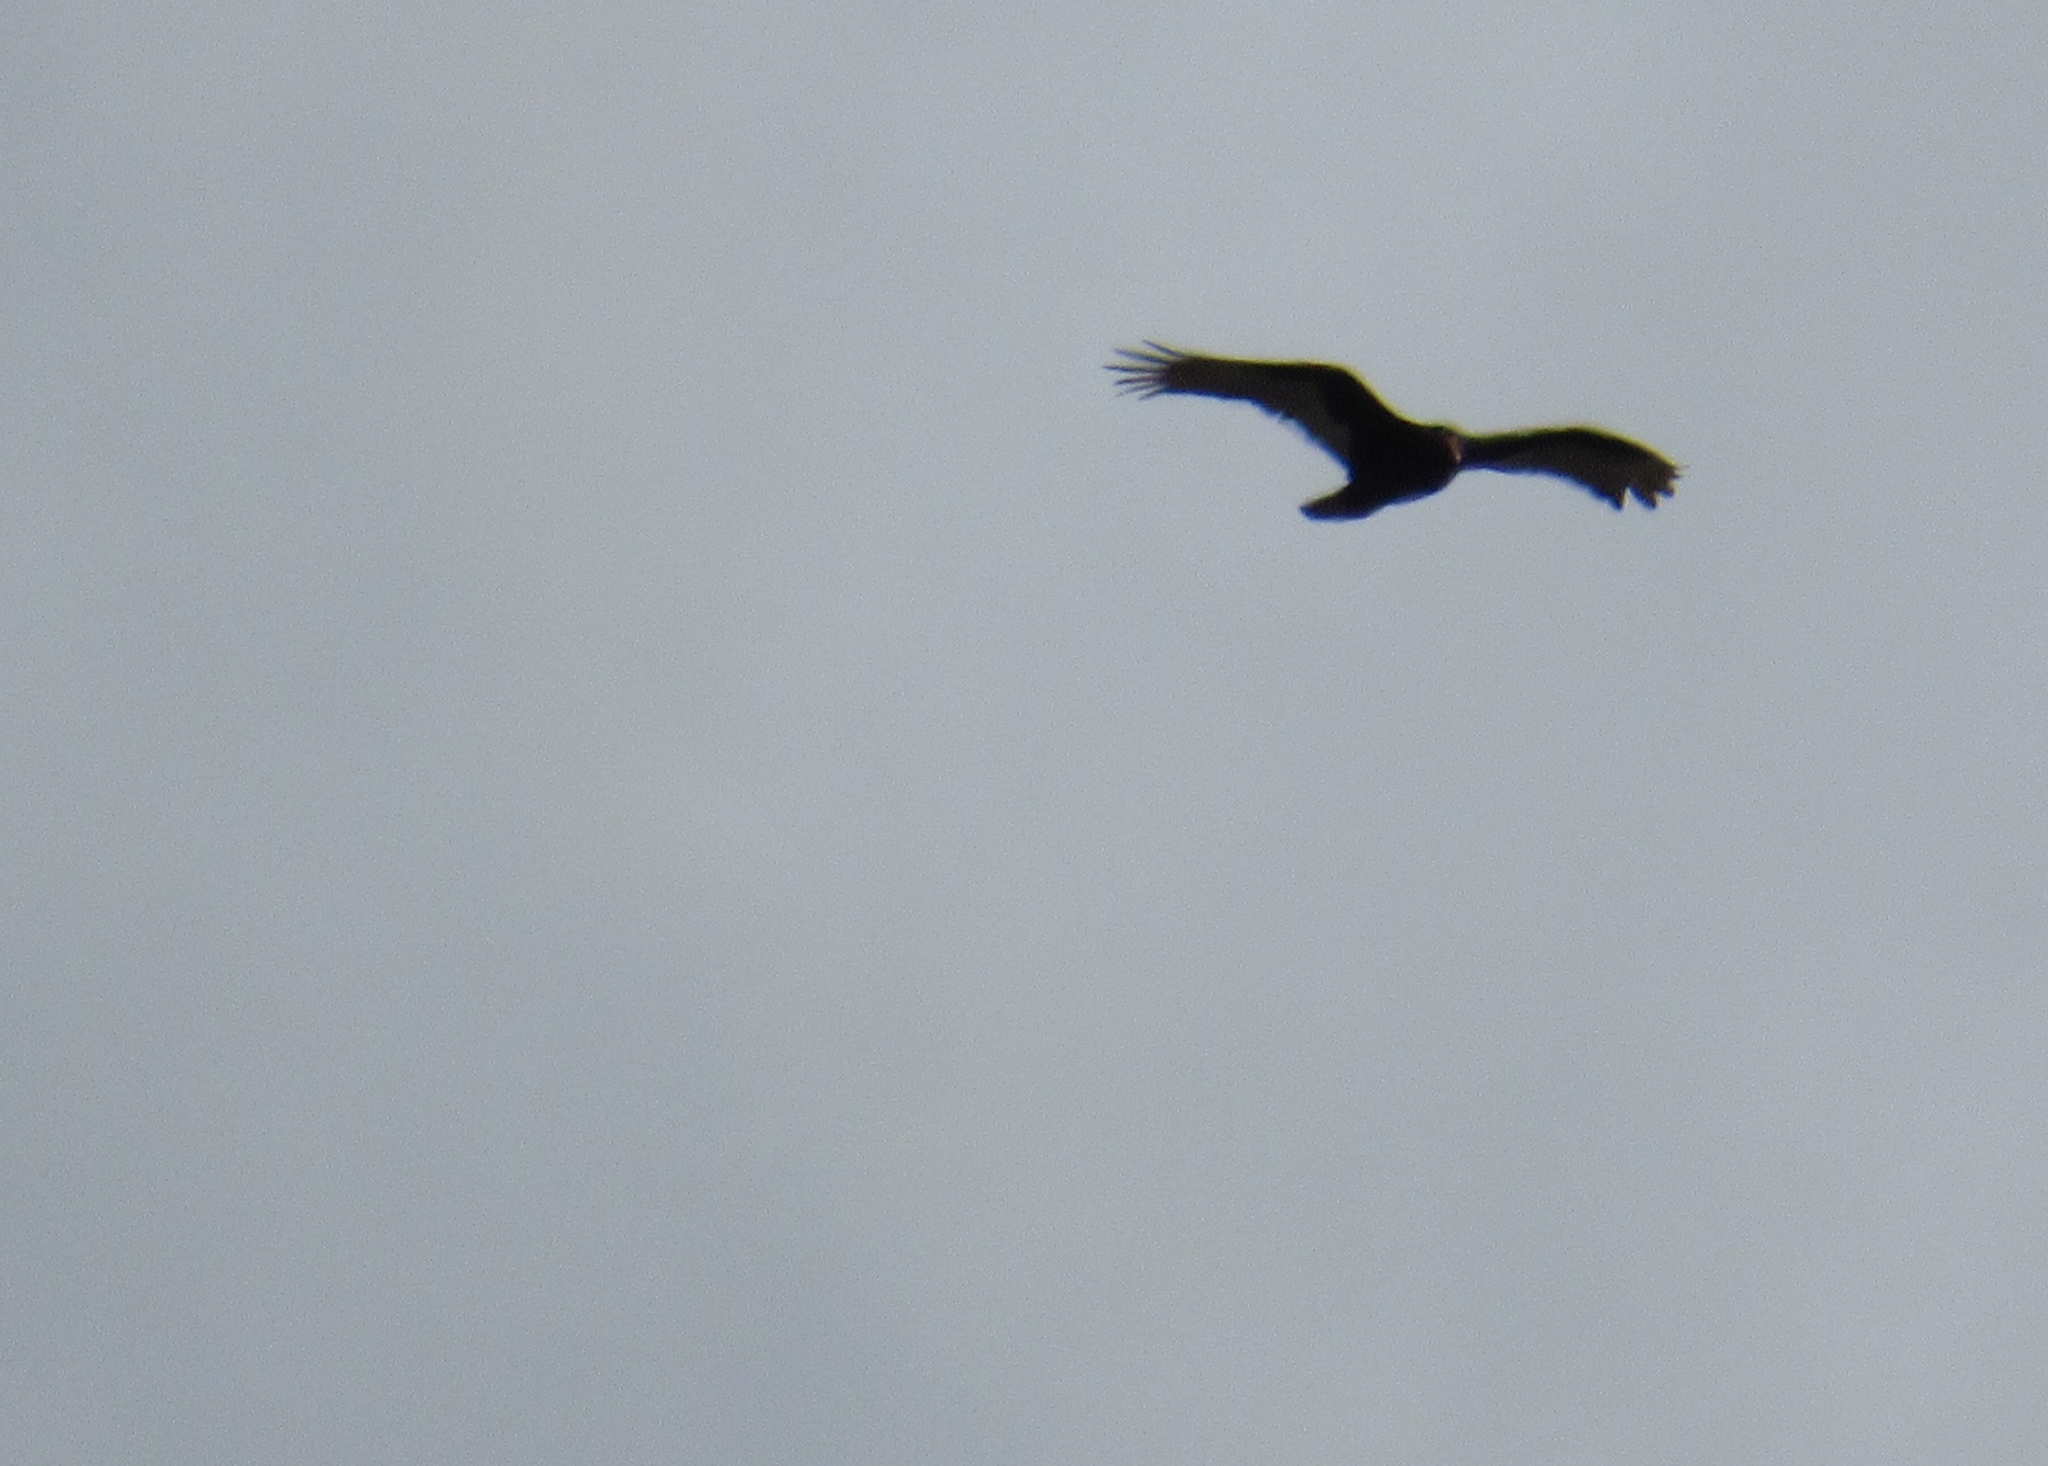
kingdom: Animalia
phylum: Chordata
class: Aves
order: Accipitriformes
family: Cathartidae
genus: Cathartes
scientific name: Cathartes aura
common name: Turkey vulture
